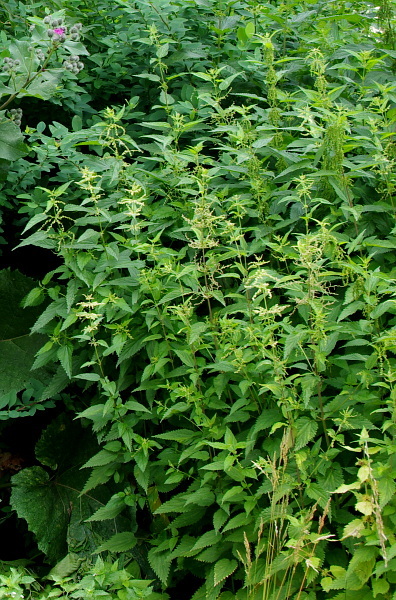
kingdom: Plantae
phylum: Tracheophyta
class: Magnoliopsida
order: Rosales
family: Urticaceae
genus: Urtica
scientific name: Urtica dioica
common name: Common nettle
